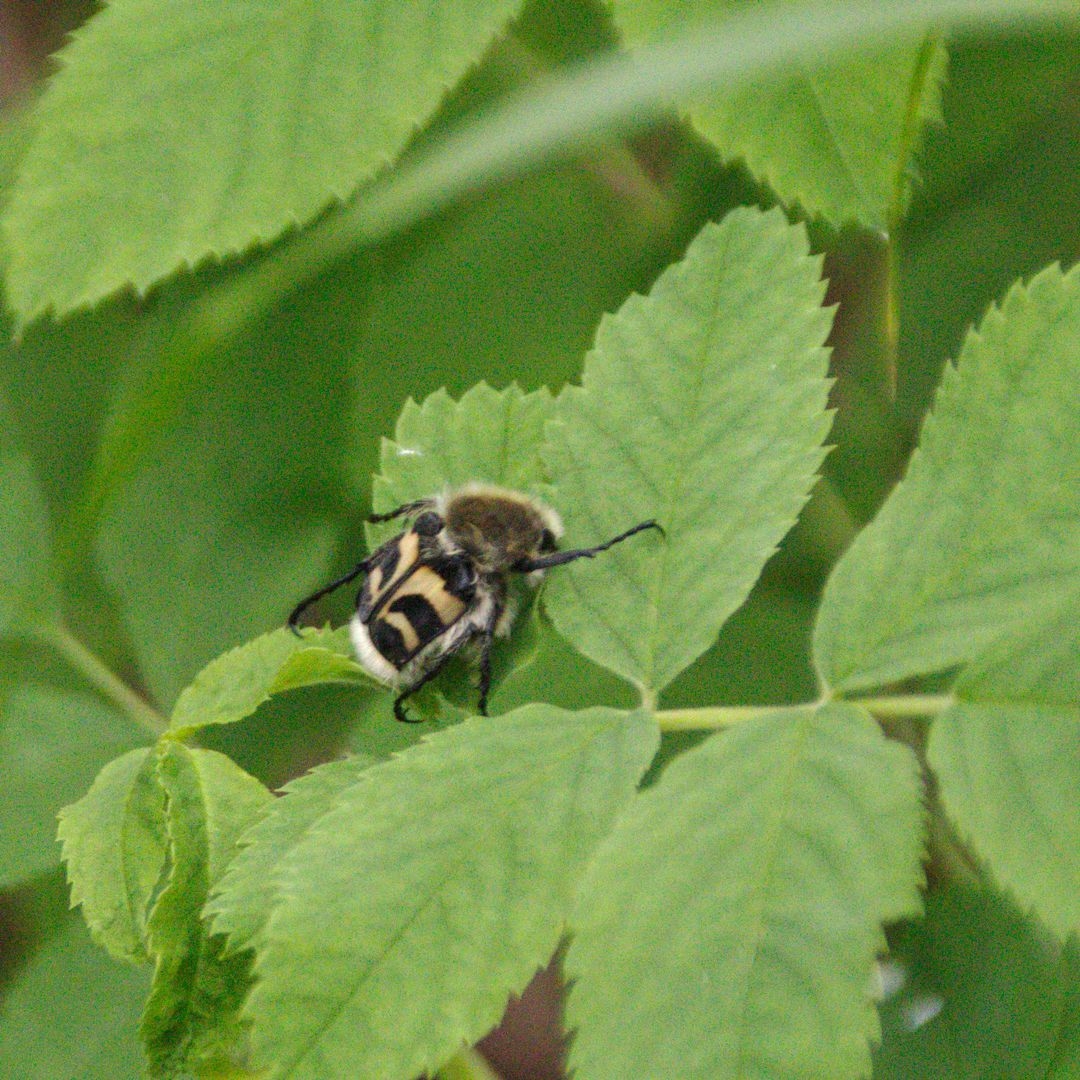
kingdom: Animalia
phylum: Arthropoda
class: Insecta
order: Coleoptera
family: Scarabaeidae
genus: Trichius
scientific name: Trichius fasciatus
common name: Bee beetle
